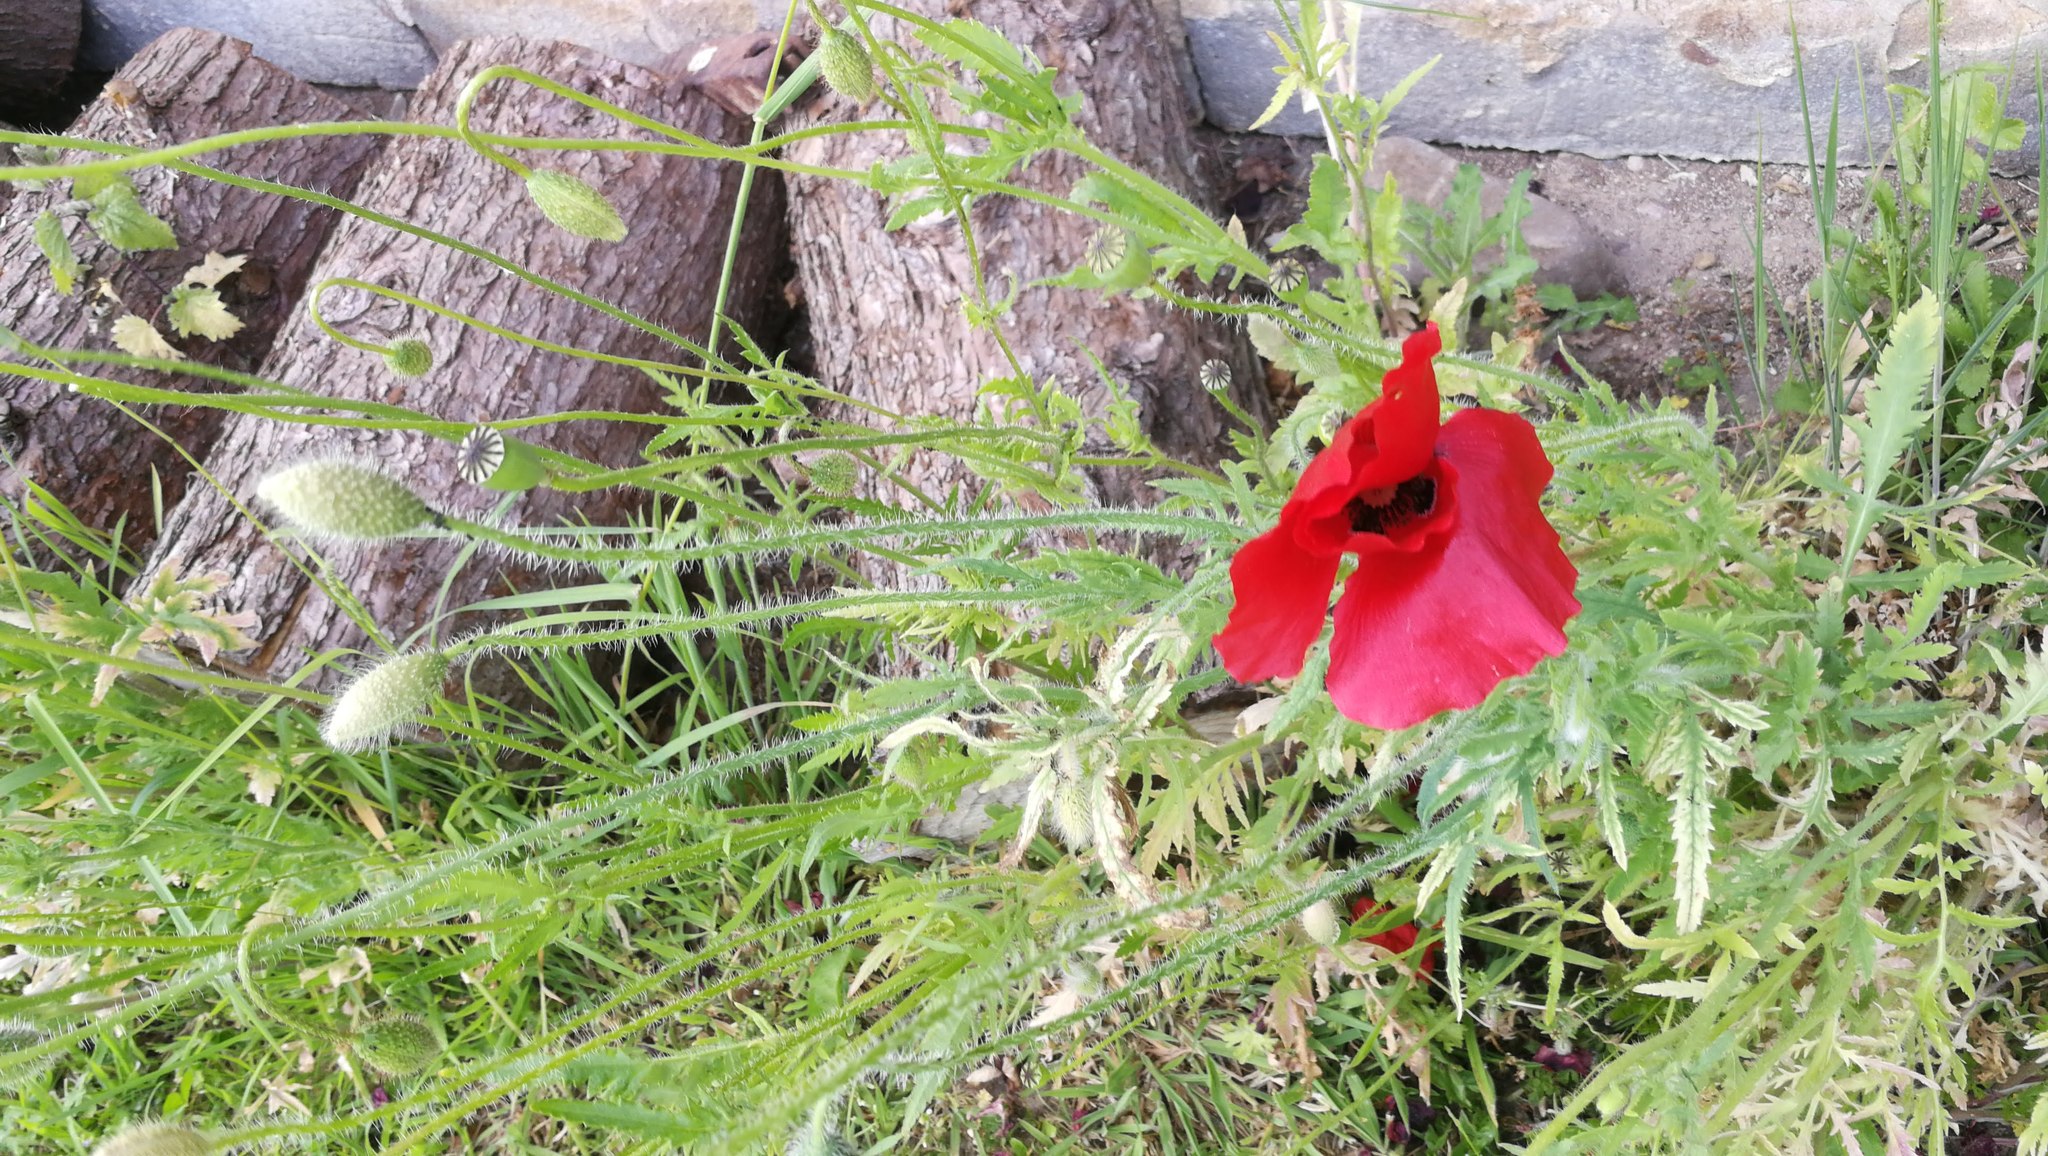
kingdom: Plantae
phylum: Tracheophyta
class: Magnoliopsida
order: Ranunculales
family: Papaveraceae
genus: Papaver
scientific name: Papaver rhoeas
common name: Corn poppy
